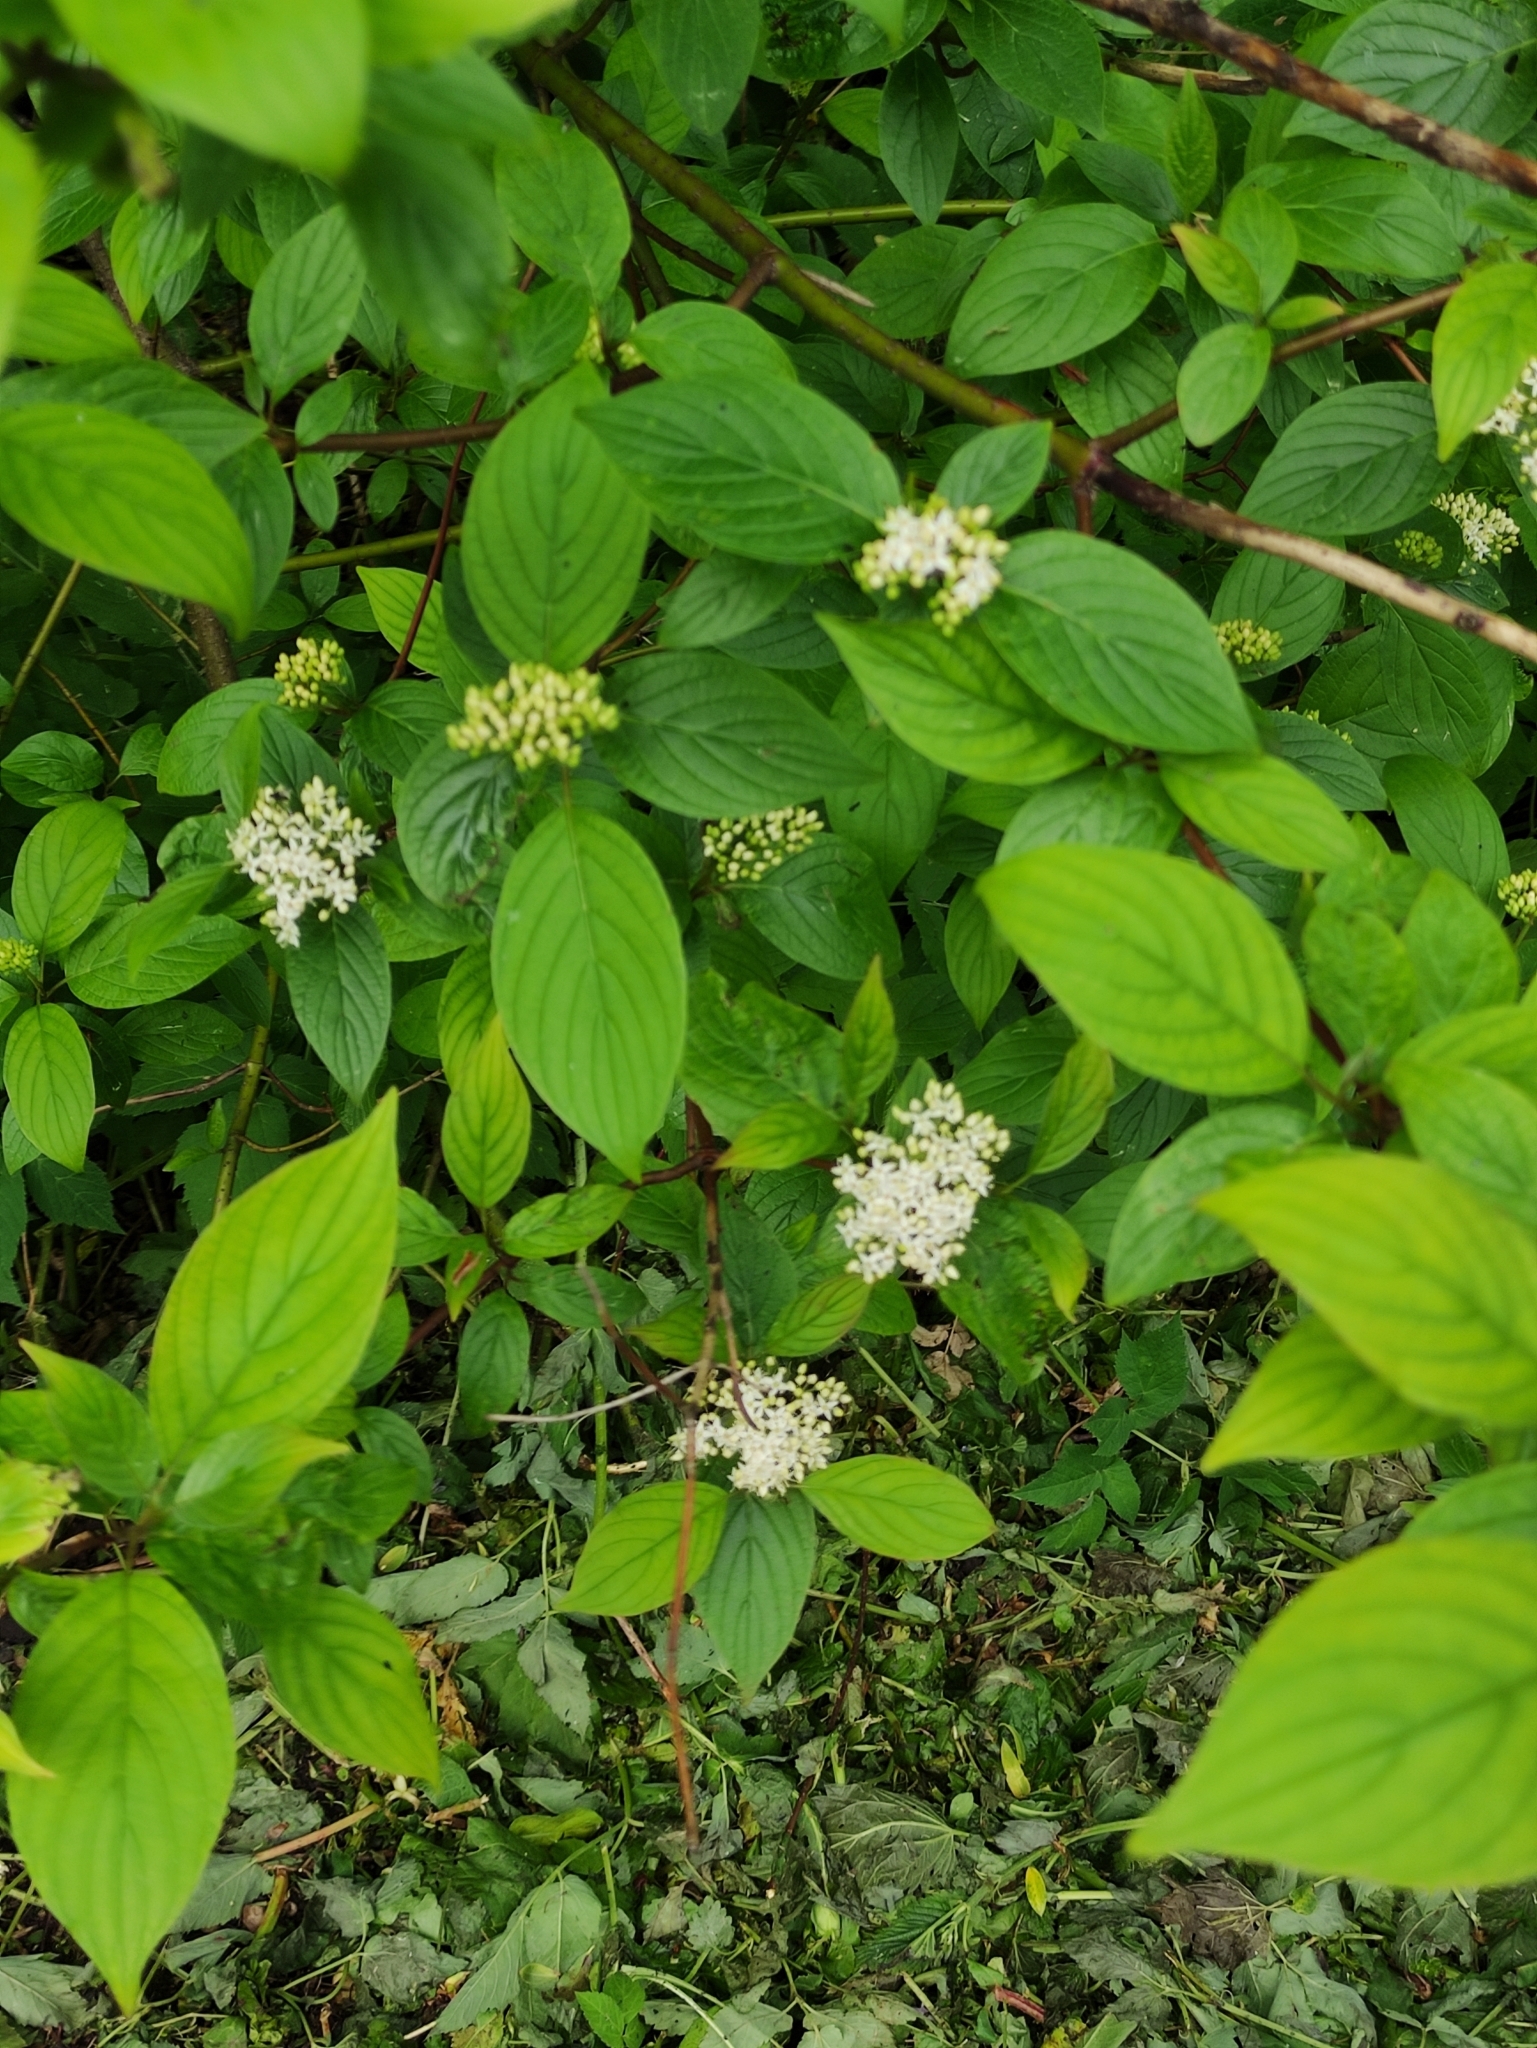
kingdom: Plantae
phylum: Tracheophyta
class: Magnoliopsida
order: Cornales
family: Cornaceae
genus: Cornus
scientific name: Cornus sericea
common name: Red-osier dogwood
